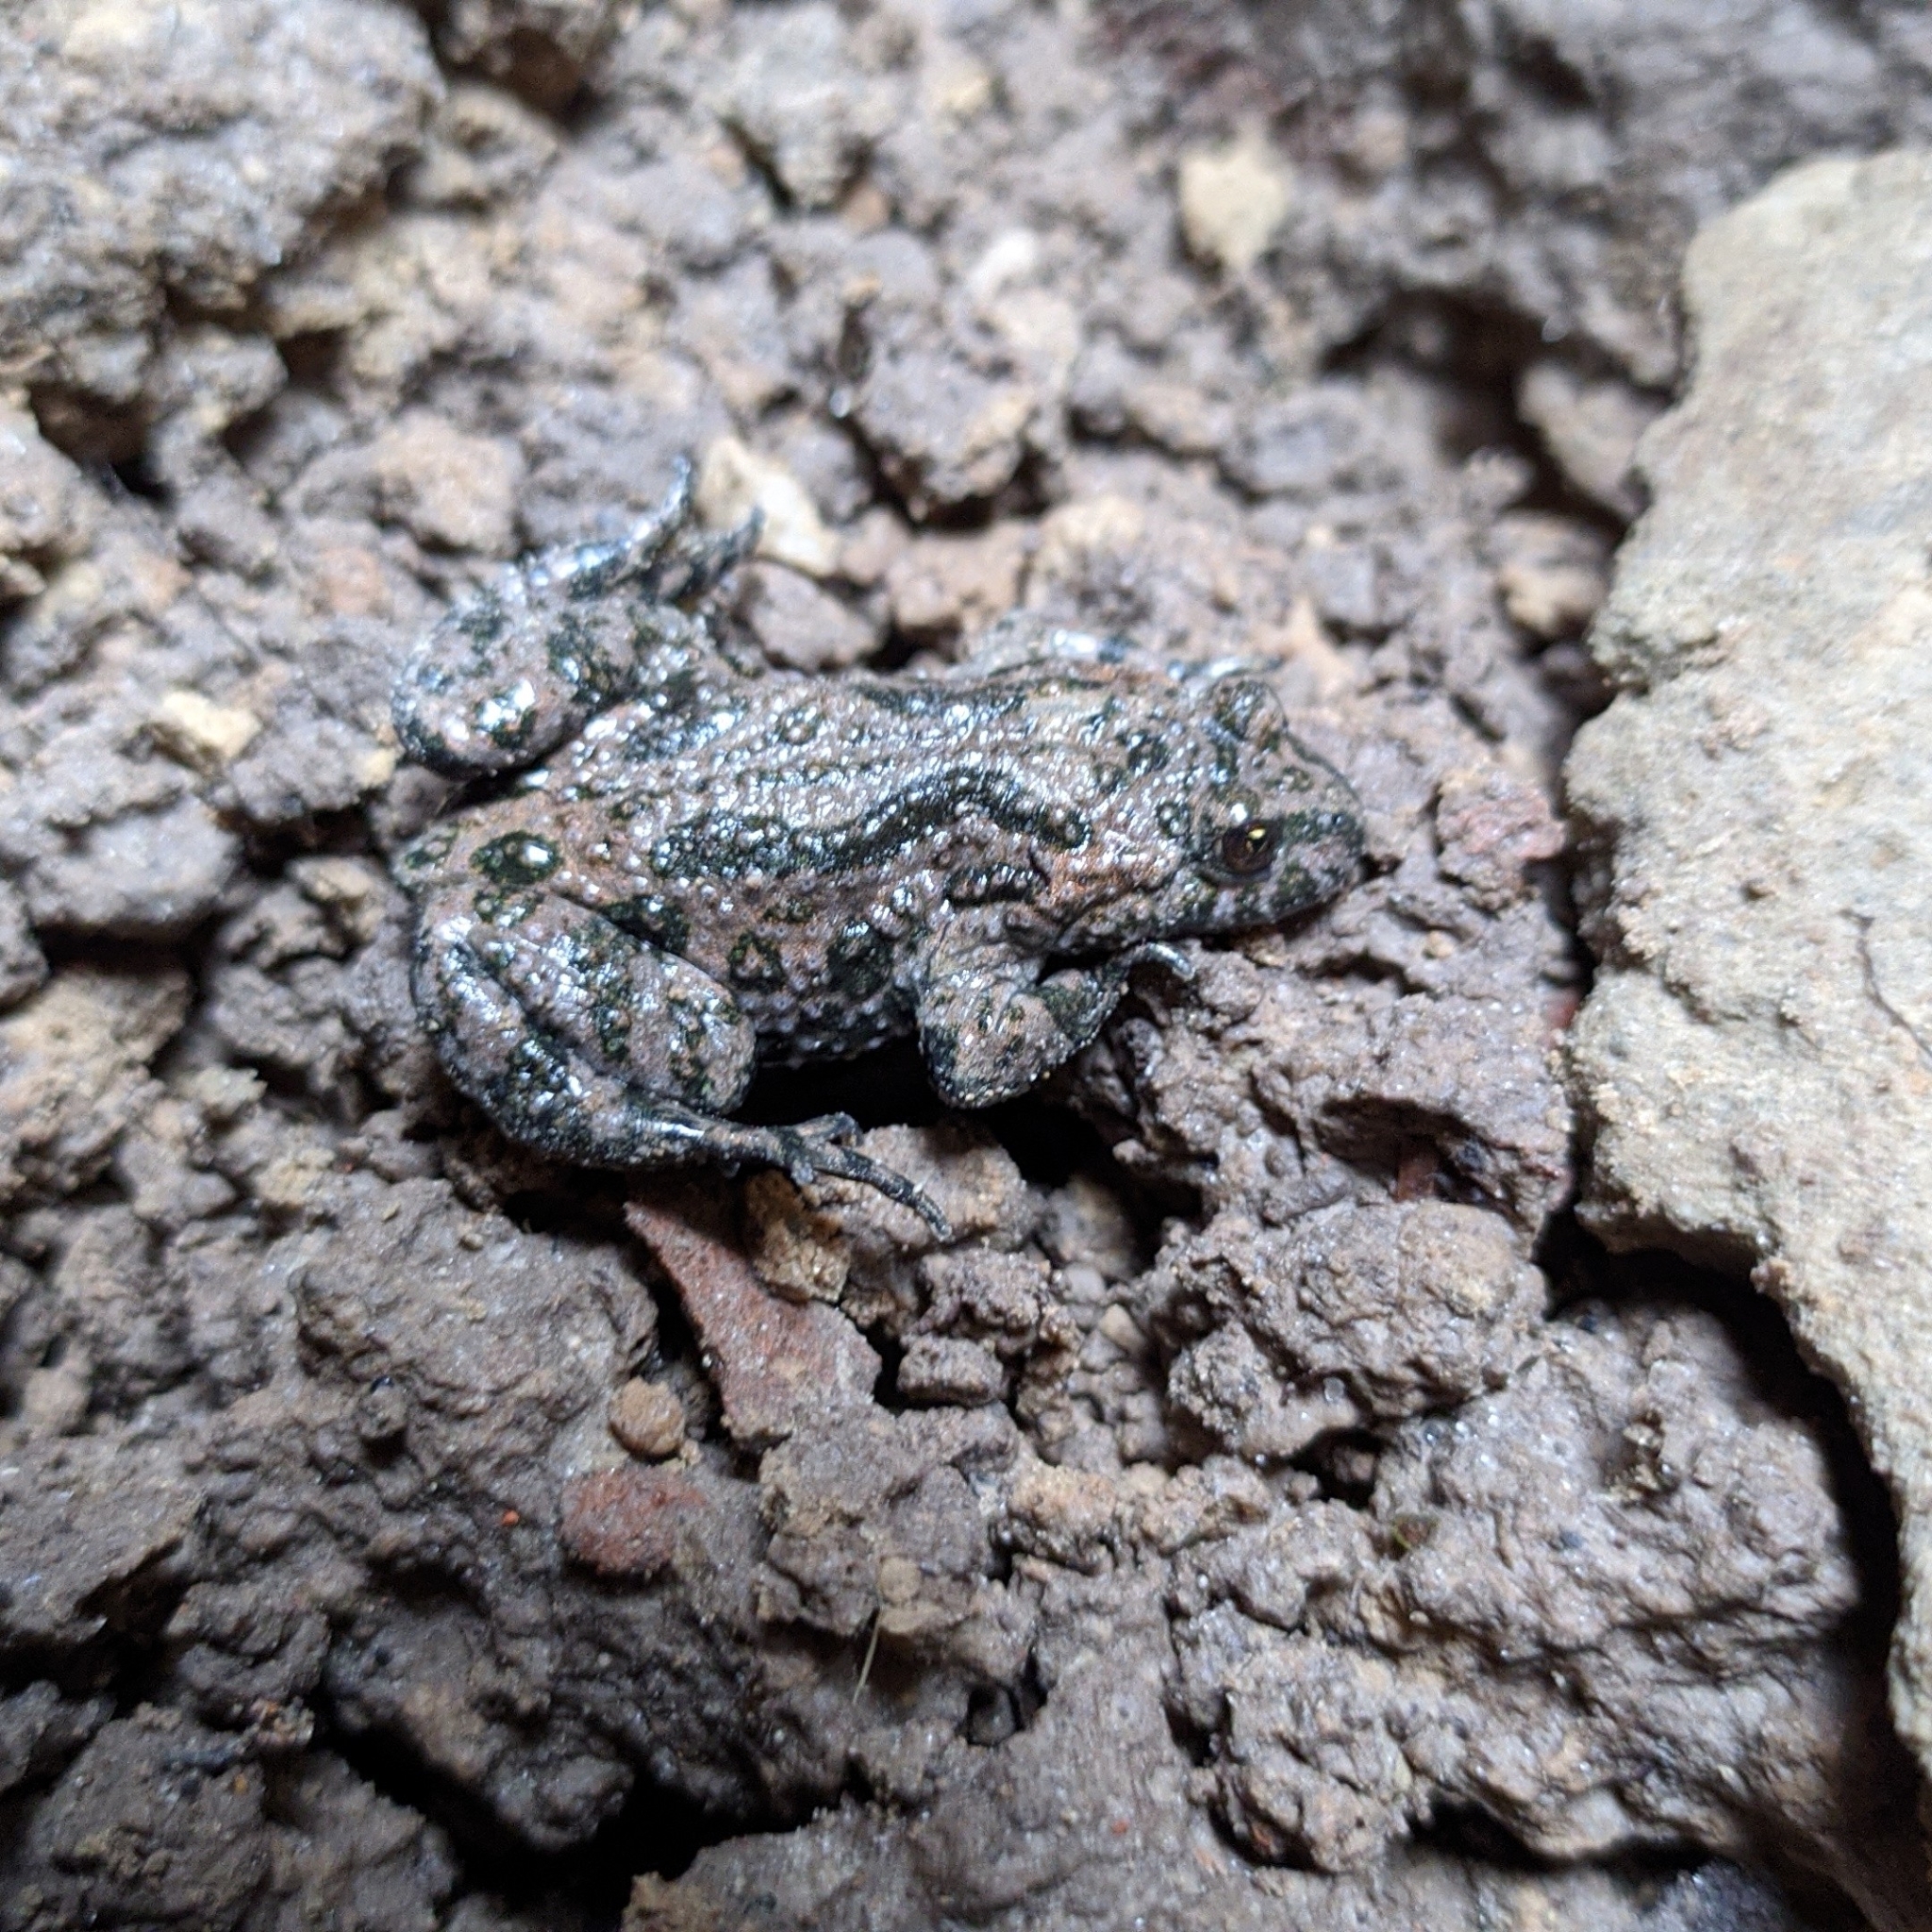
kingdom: Animalia
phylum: Chordata
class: Amphibia
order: Anura
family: Bombinatoridae
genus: Bombina
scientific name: Bombina bombina
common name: Fire-bellied toad
